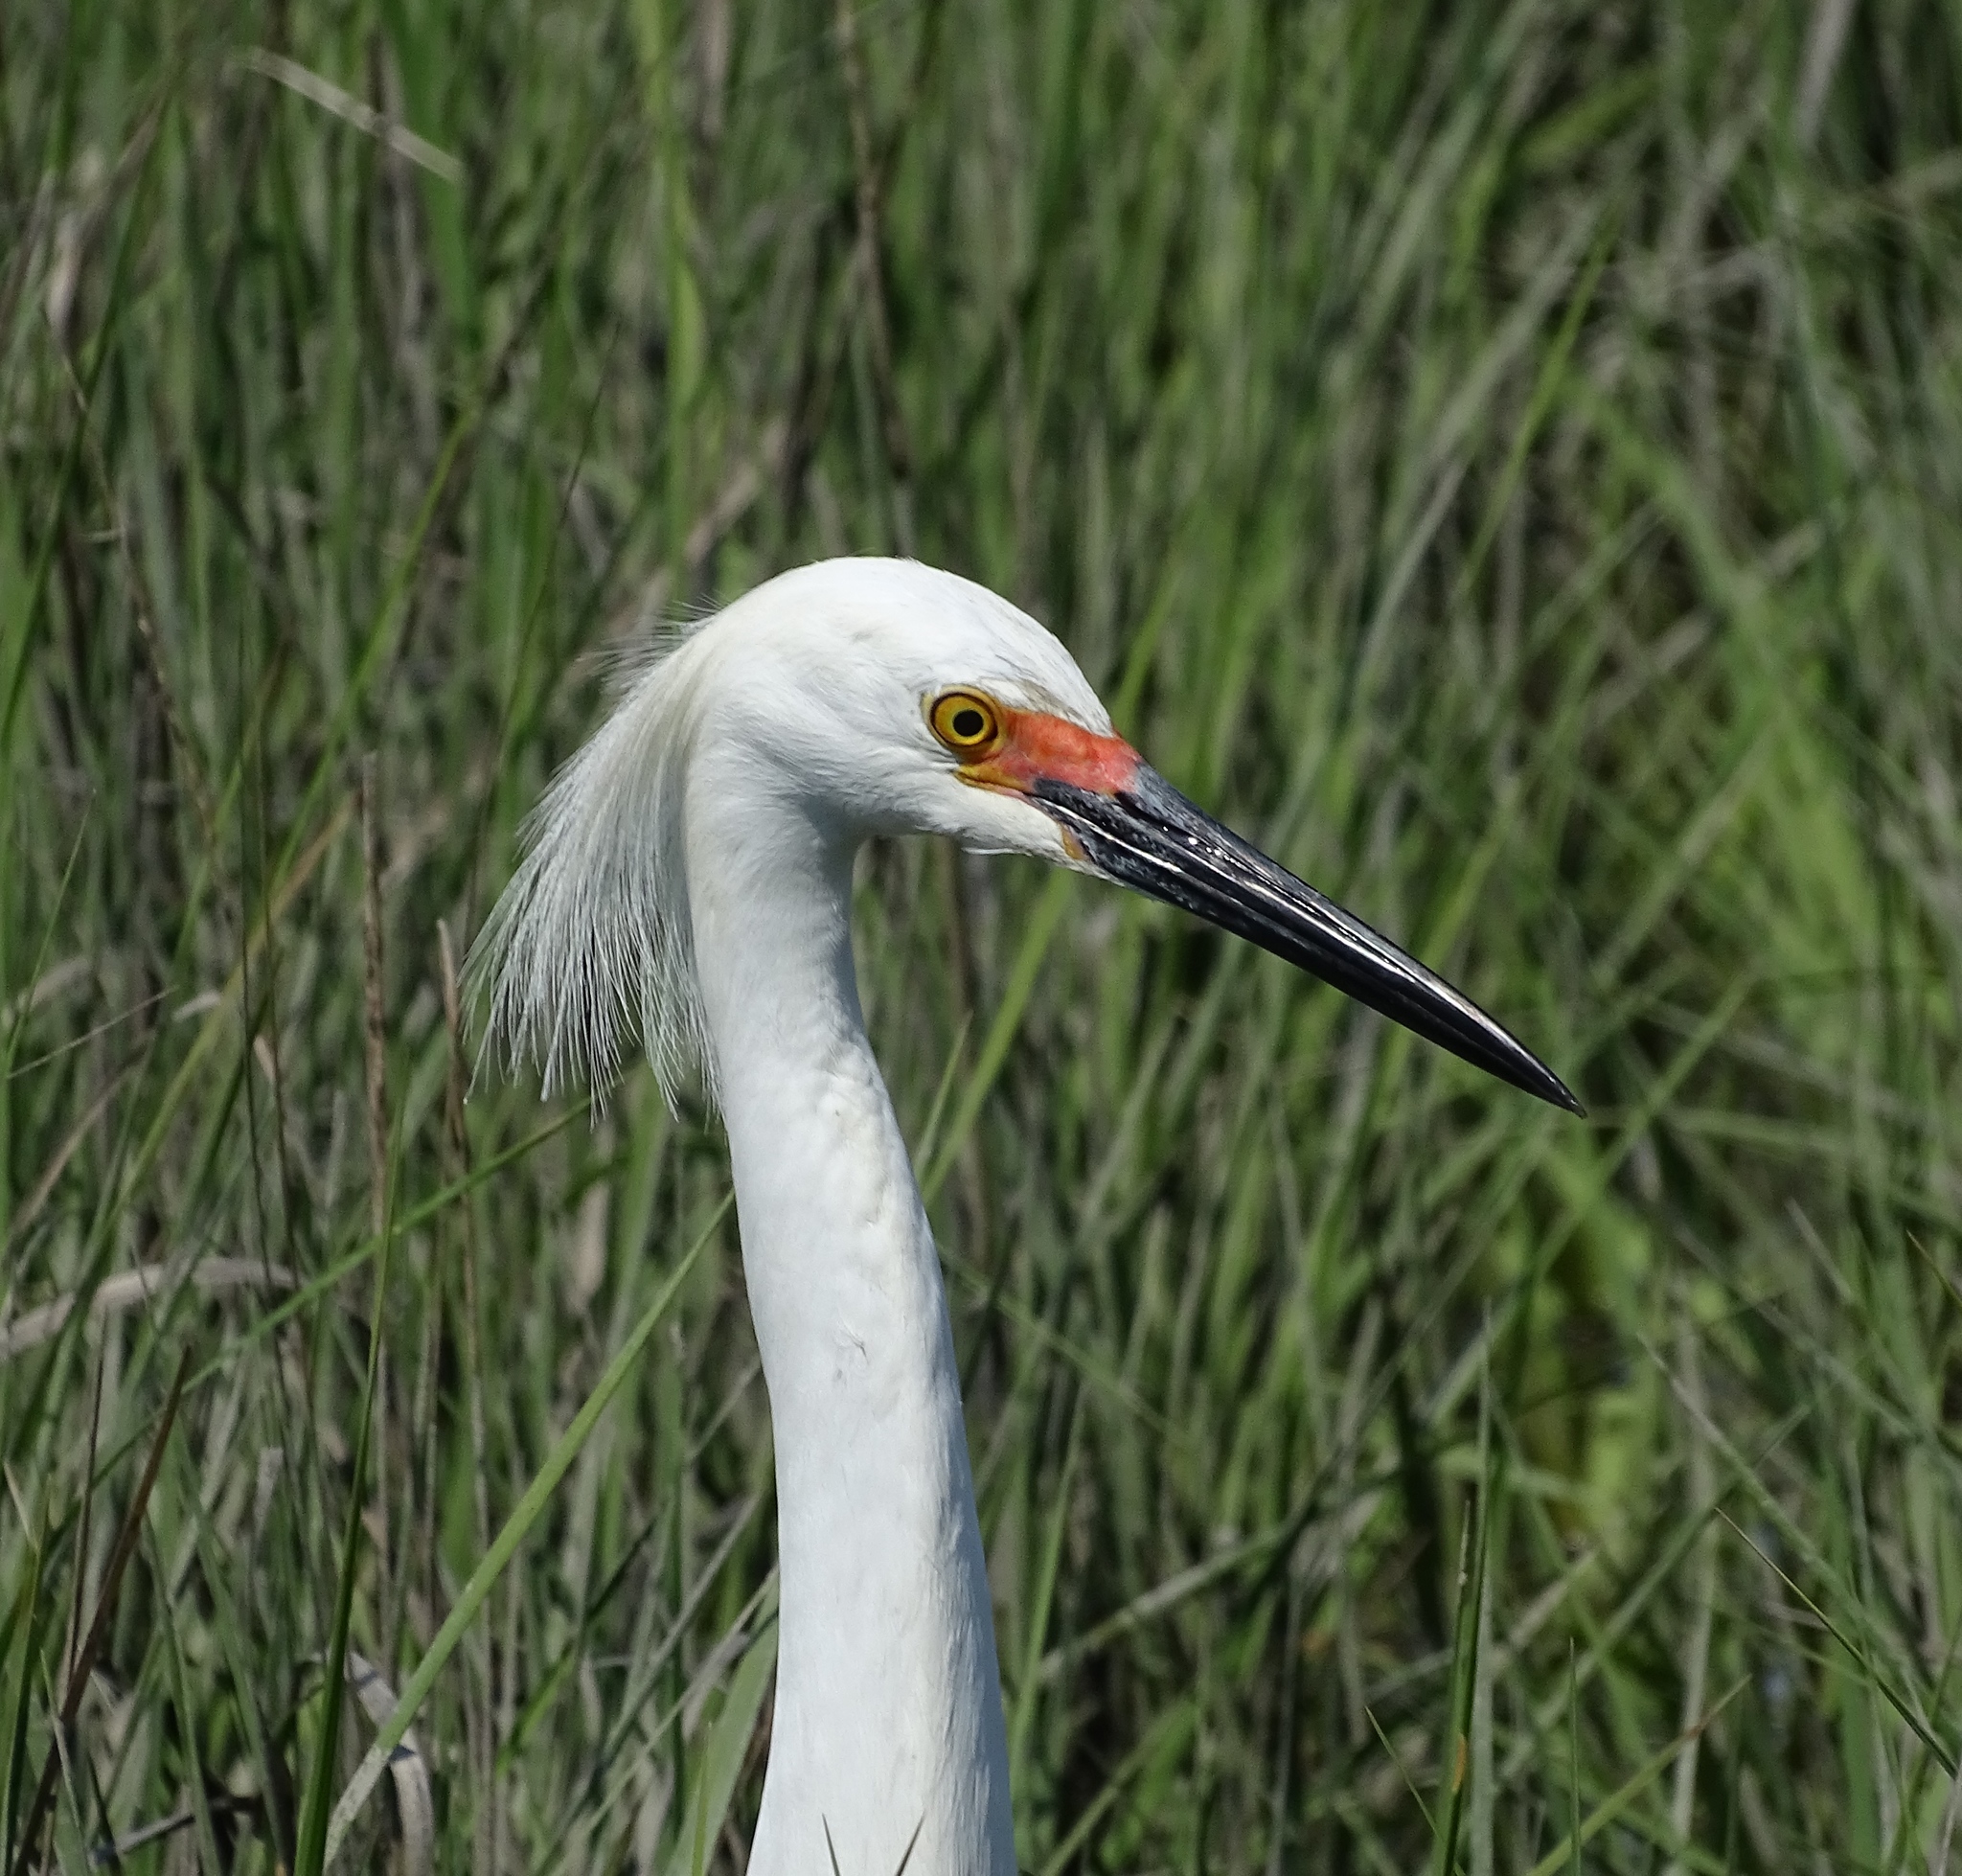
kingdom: Animalia
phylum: Chordata
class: Aves
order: Pelecaniformes
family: Ardeidae
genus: Egretta
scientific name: Egretta thula
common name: Snowy egret
